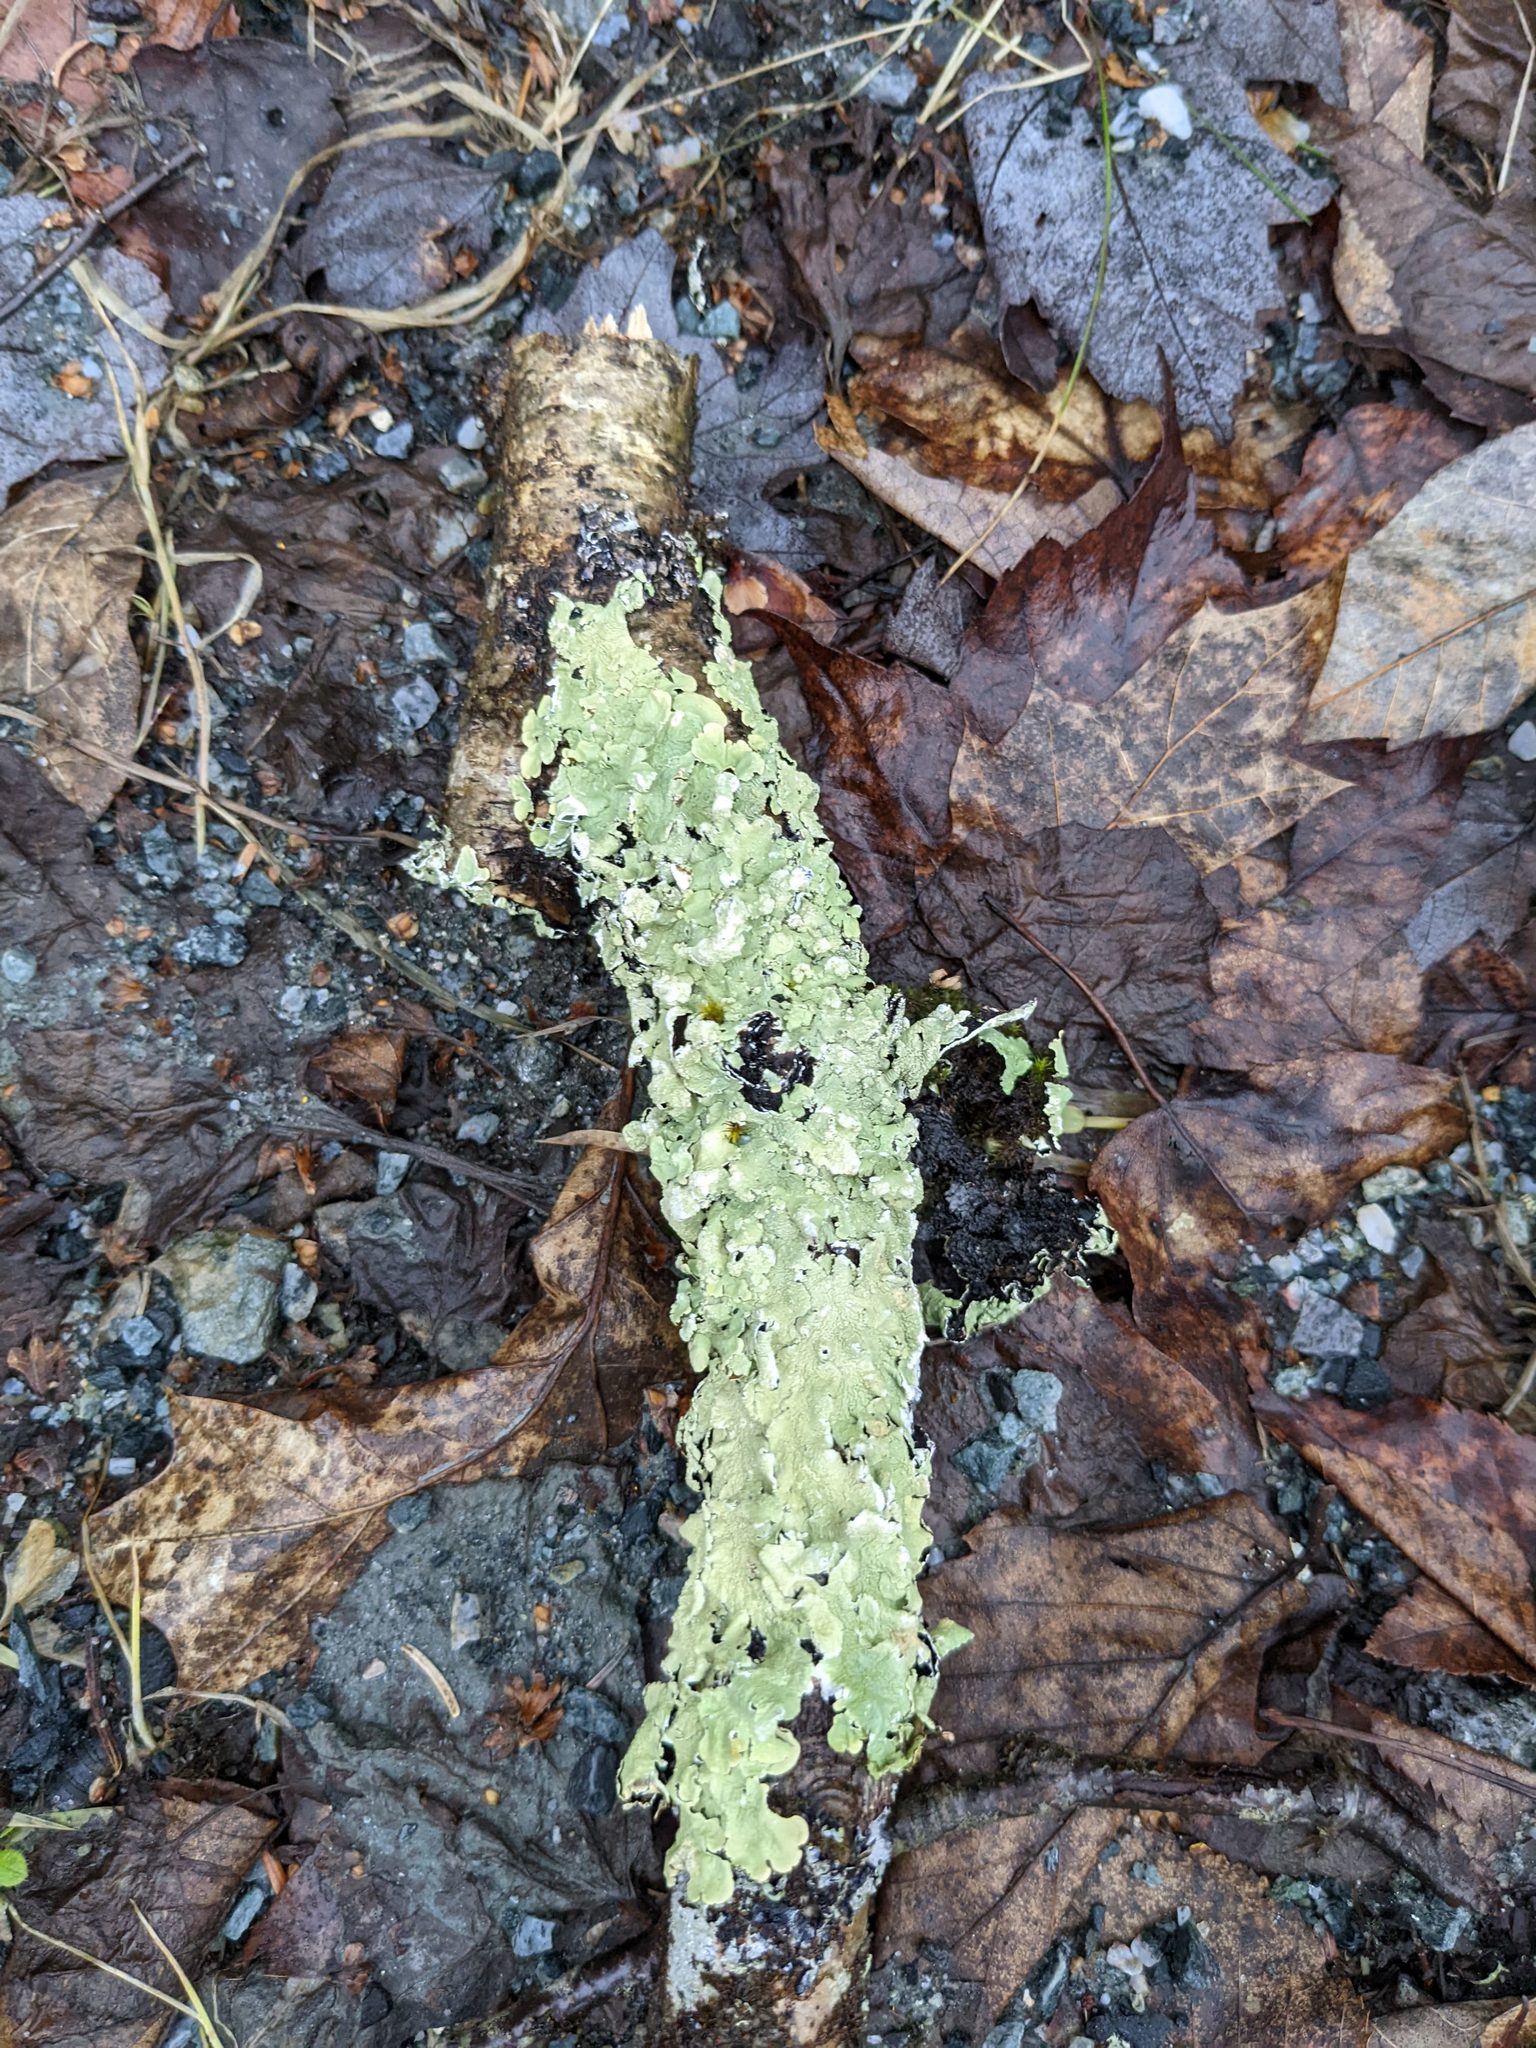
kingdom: Fungi
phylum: Ascomycota
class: Lecanoromycetes
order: Lecanorales
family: Parmeliaceae
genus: Flavoparmelia
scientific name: Flavoparmelia caperata
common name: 40-mile per hour lichen
